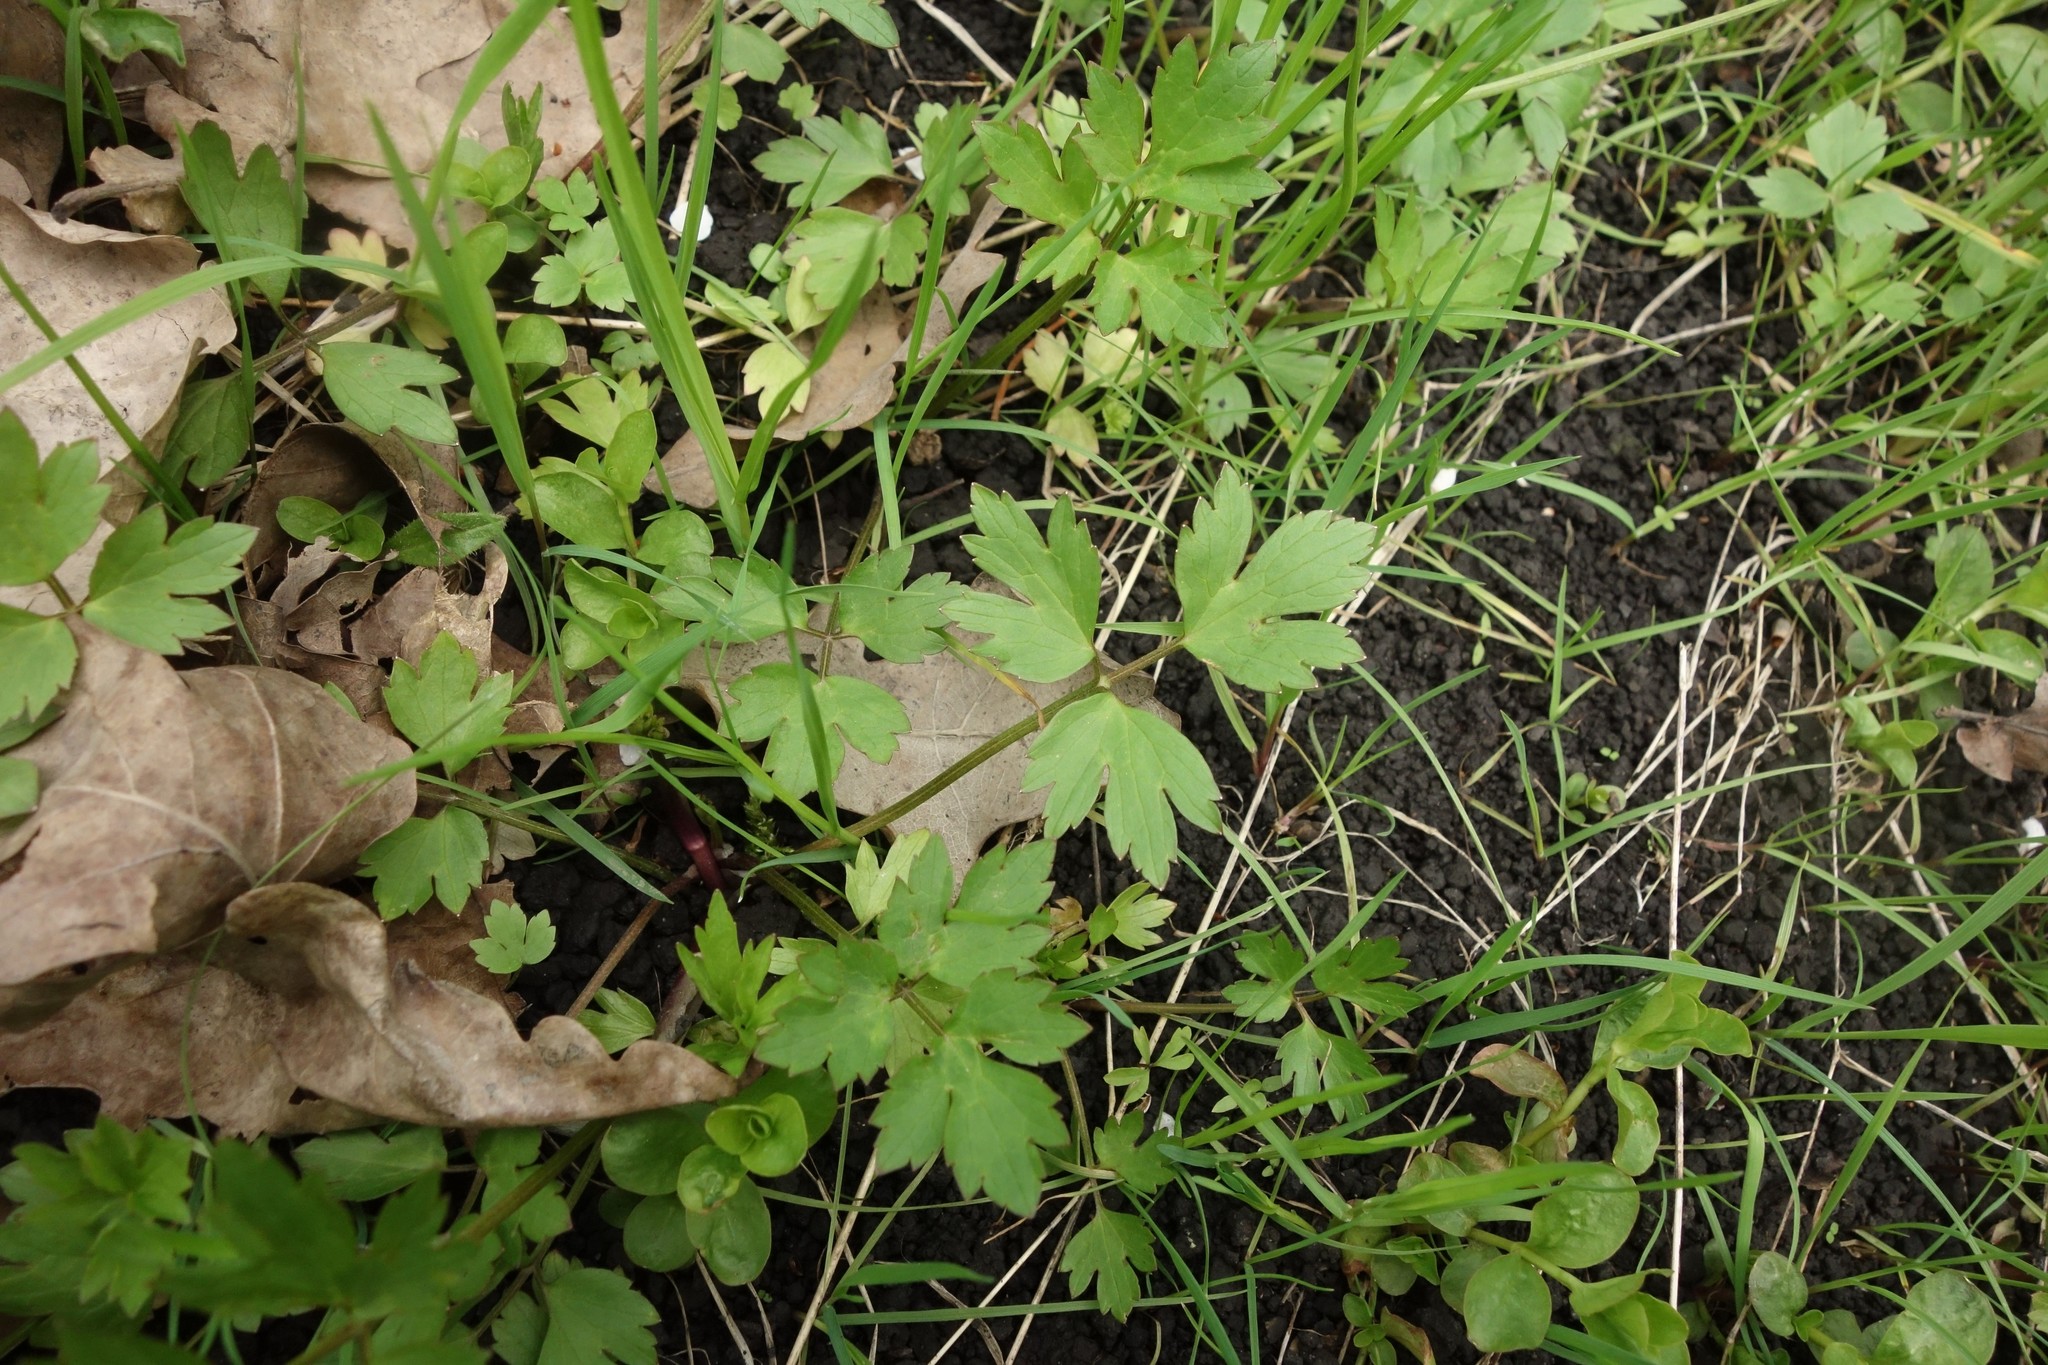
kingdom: Plantae
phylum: Tracheophyta
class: Magnoliopsida
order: Ranunculales
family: Ranunculaceae
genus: Ranunculus
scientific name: Ranunculus repens
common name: Creeping buttercup
